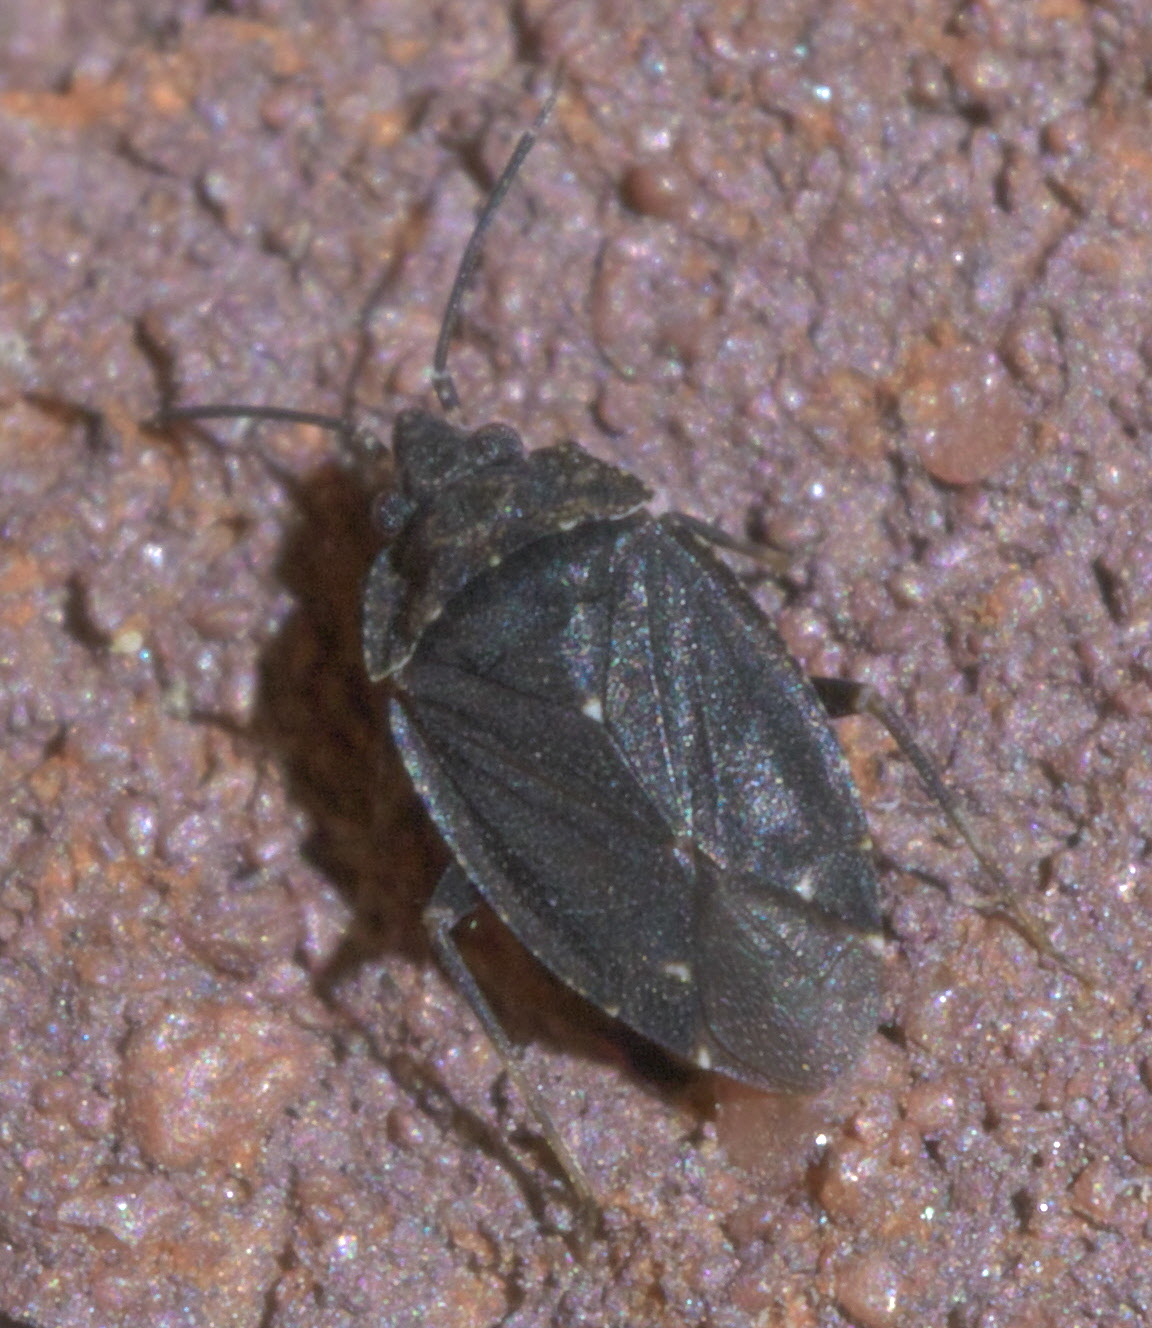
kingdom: Animalia
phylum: Arthropoda
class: Insecta
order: Hemiptera
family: Miridae
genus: Peritropis
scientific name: Peritropis saldaeformis
